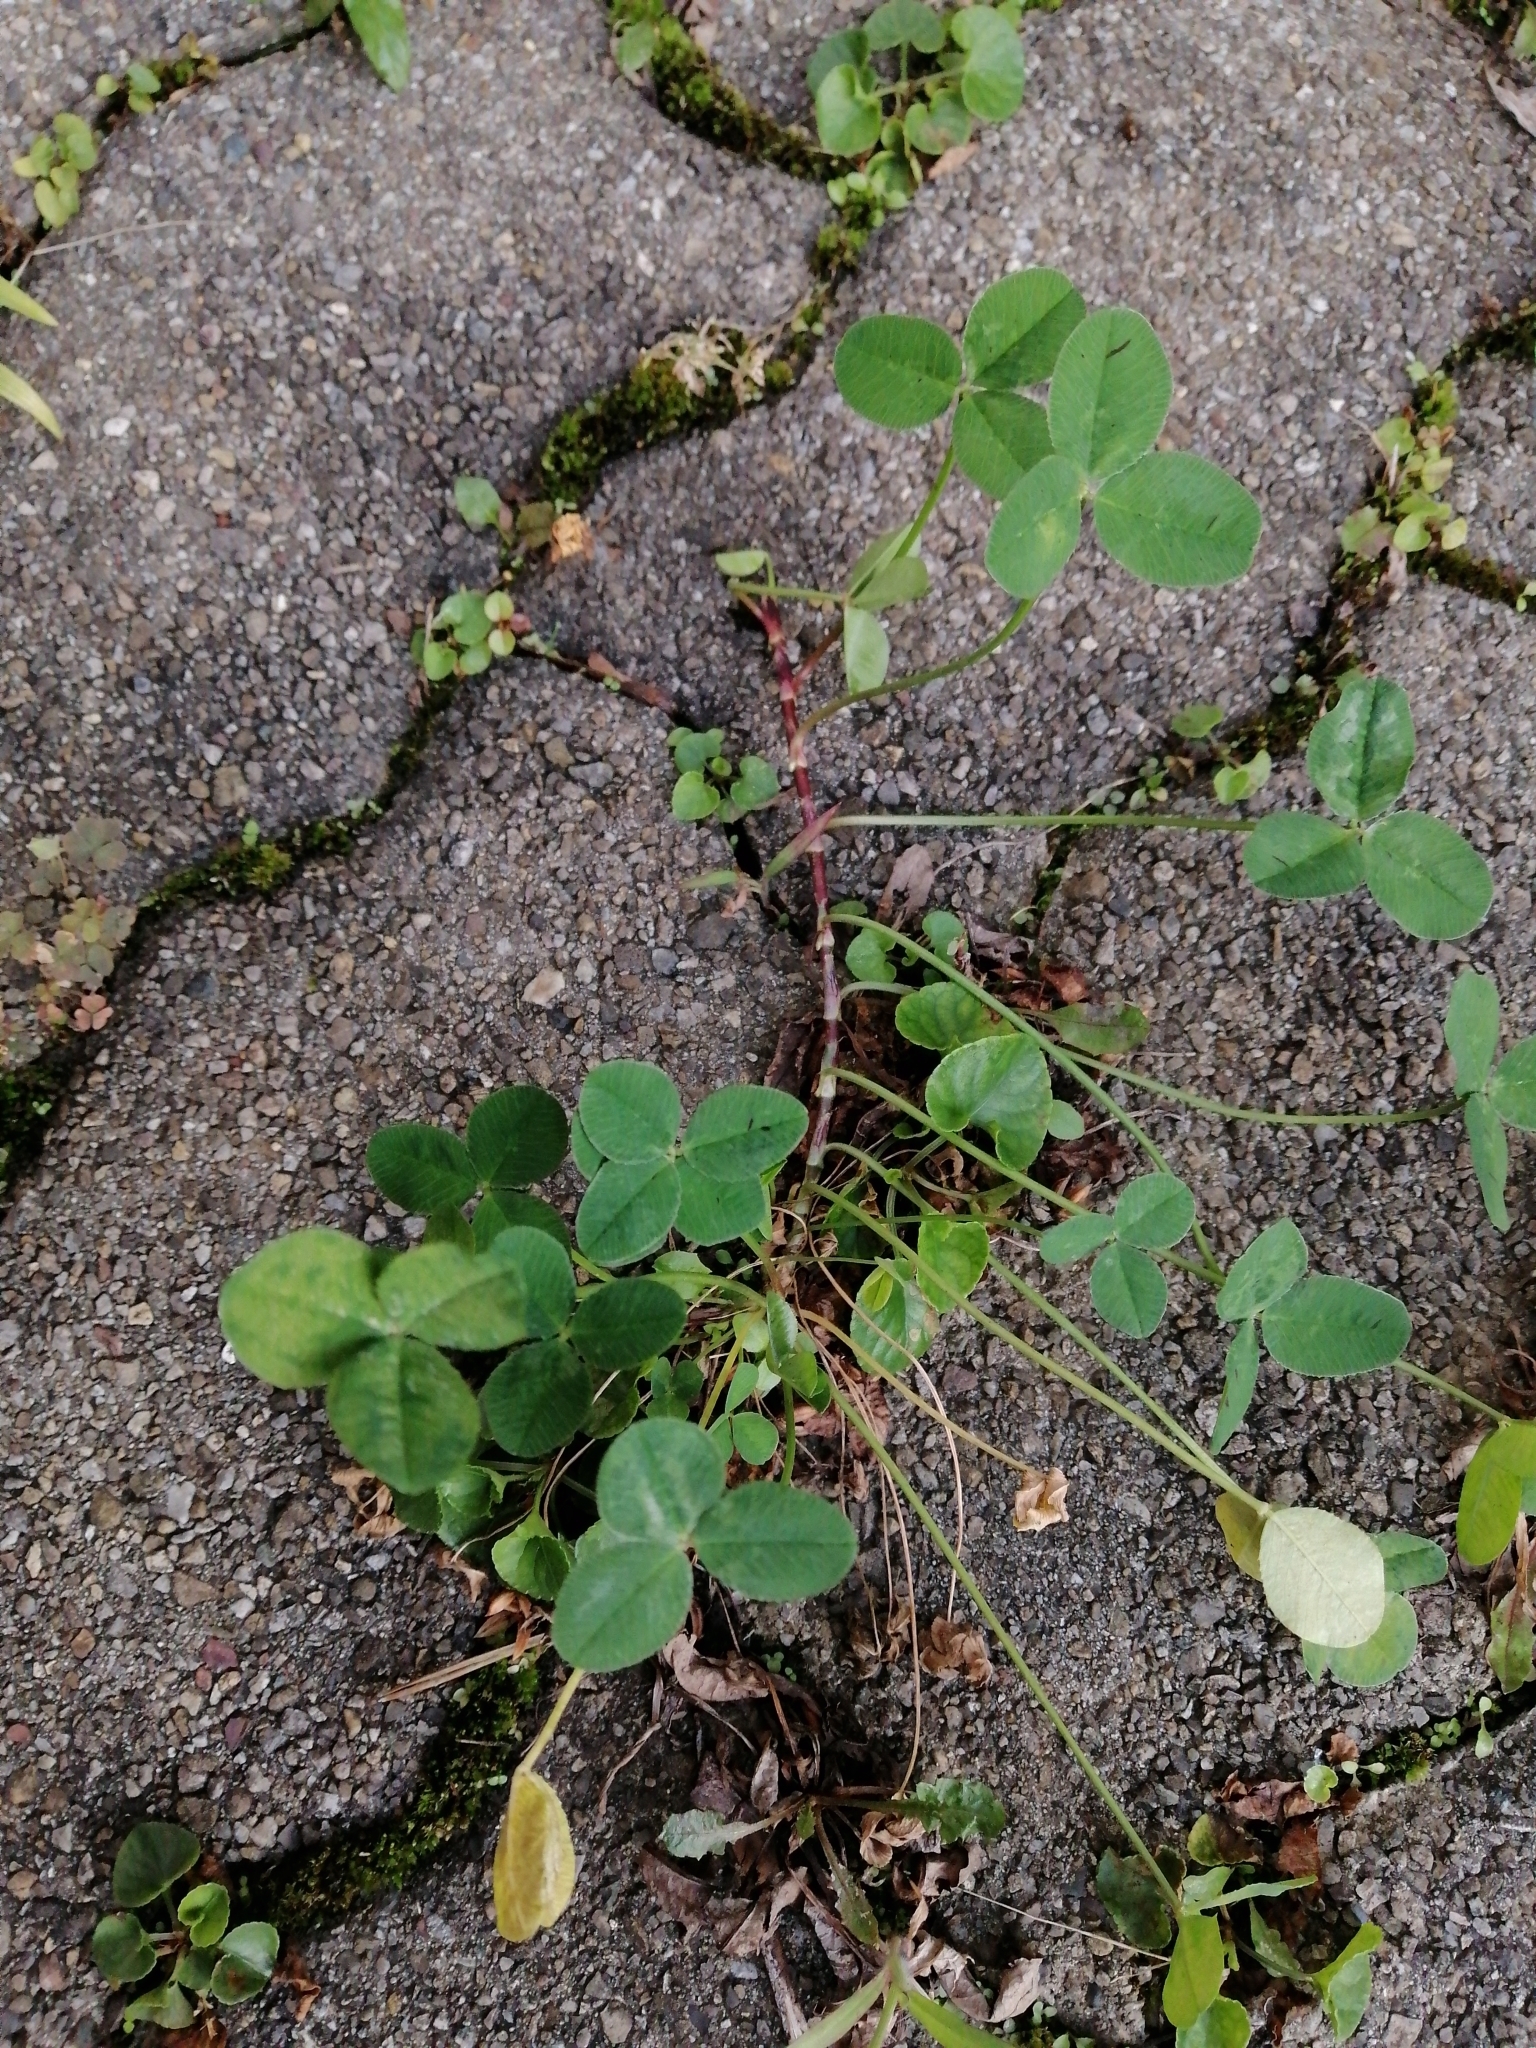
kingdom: Plantae
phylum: Tracheophyta
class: Magnoliopsida
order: Fabales
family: Fabaceae
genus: Trifolium
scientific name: Trifolium repens
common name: White clover
